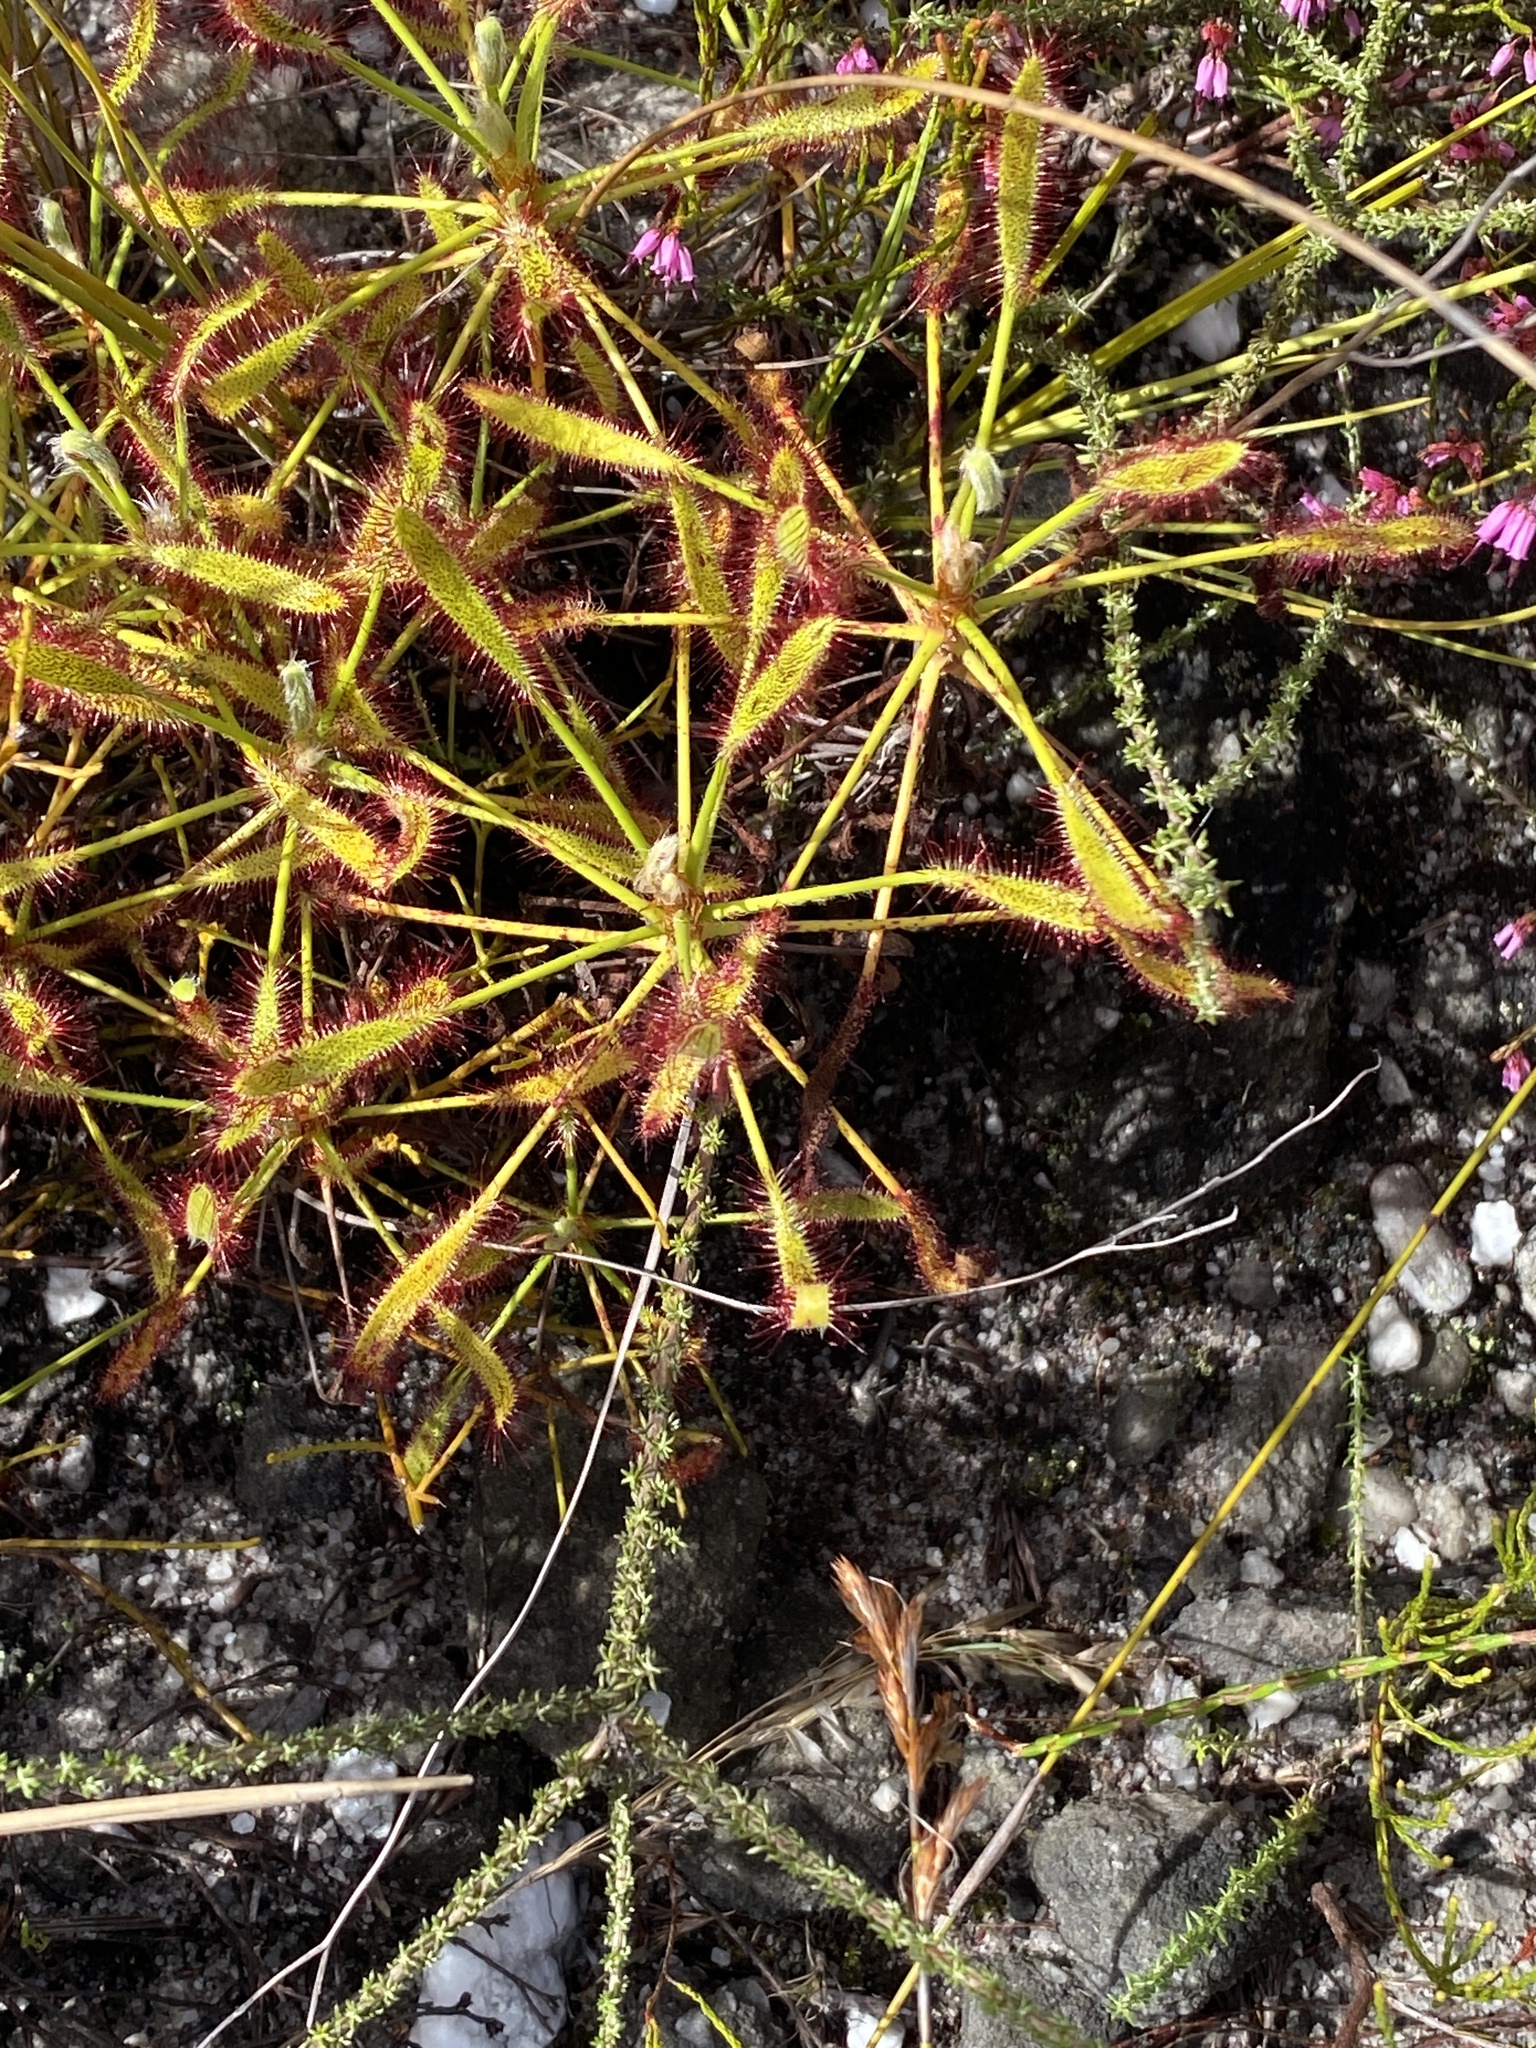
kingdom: Plantae
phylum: Tracheophyta
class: Magnoliopsida
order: Caryophyllales
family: Droseraceae
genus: Drosera
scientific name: Drosera ramentacea
